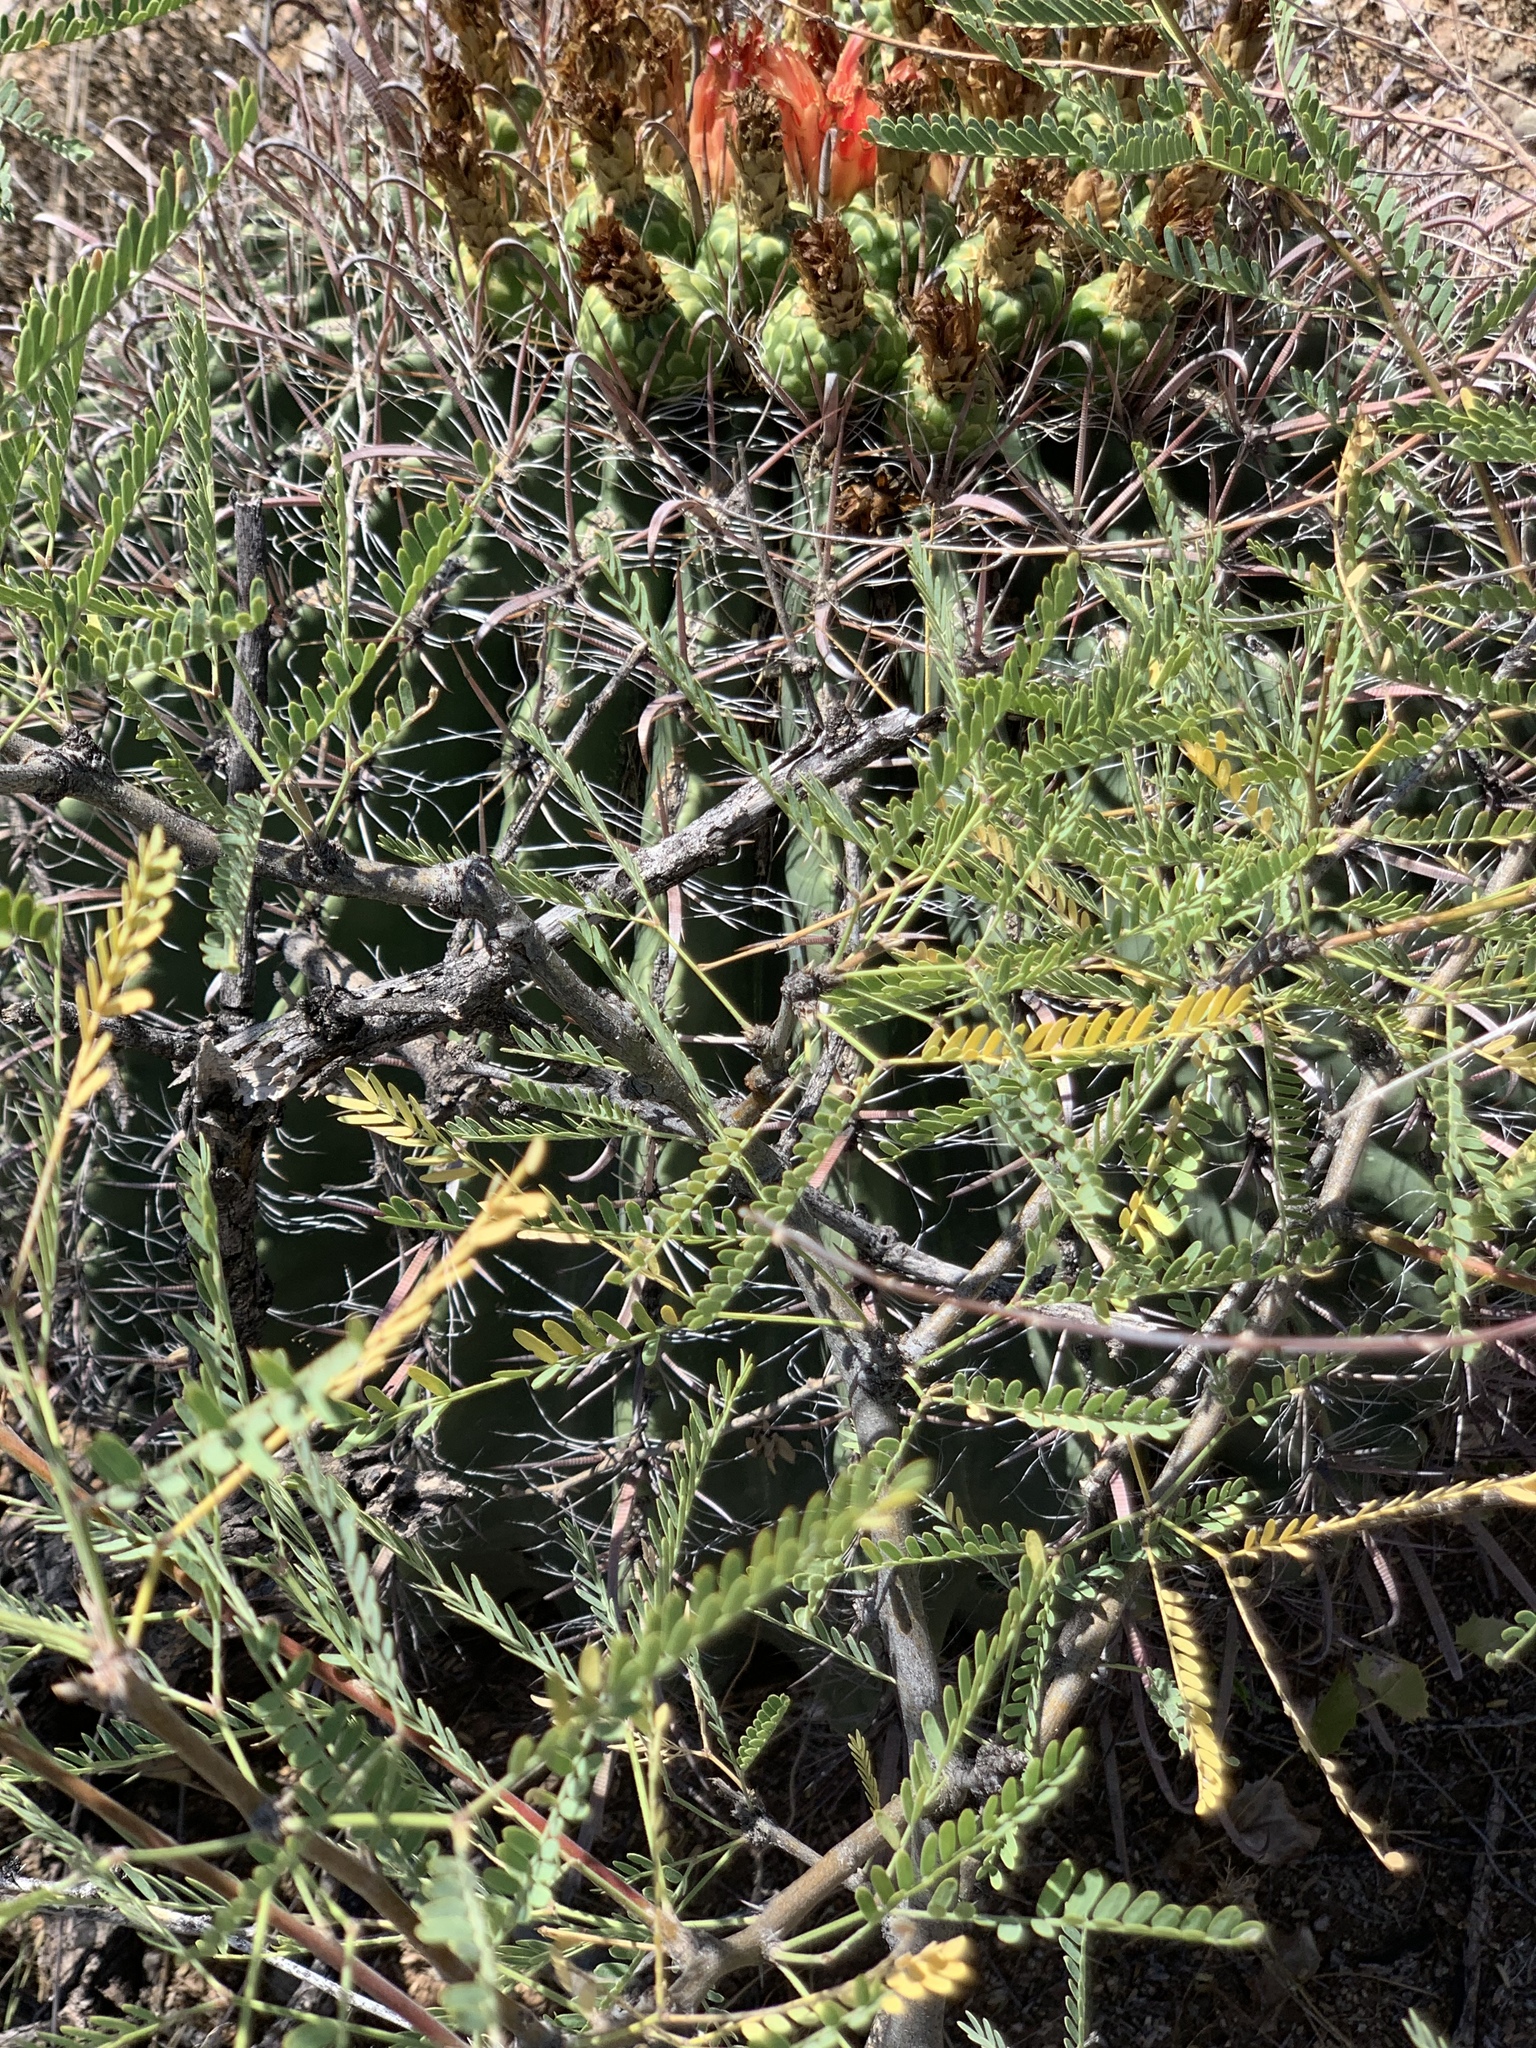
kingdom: Plantae
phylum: Tracheophyta
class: Magnoliopsida
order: Fabales
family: Fabaceae
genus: Prosopis
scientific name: Prosopis velutina
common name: Velvet mesquite
